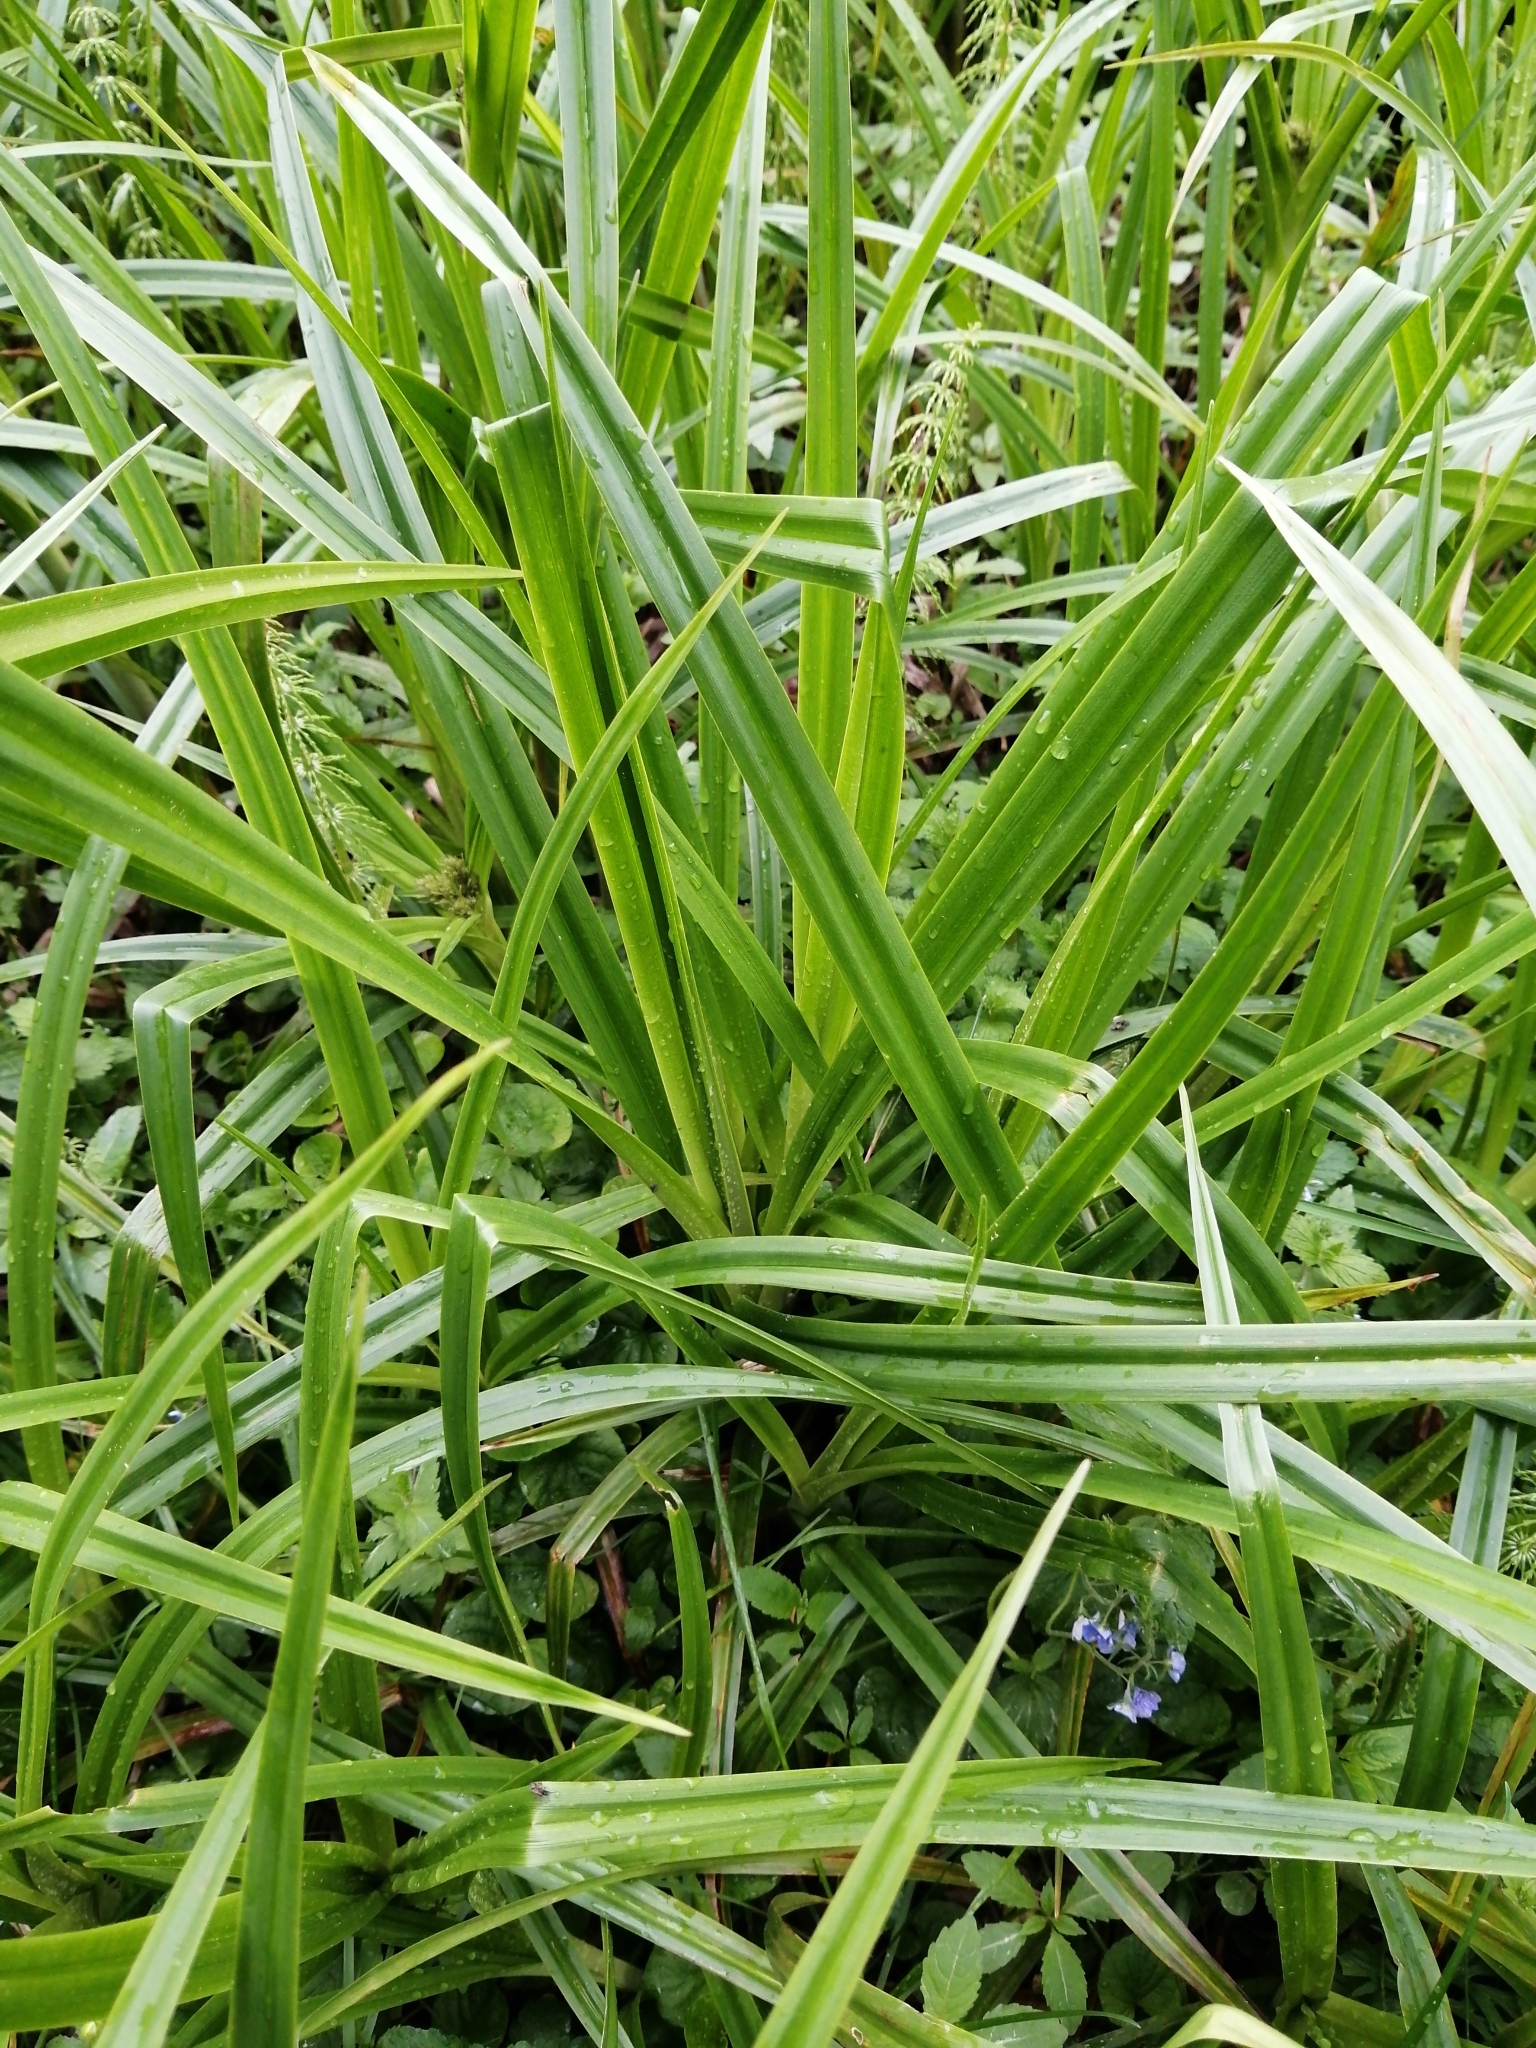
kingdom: Plantae
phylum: Tracheophyta
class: Liliopsida
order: Poales
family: Cyperaceae
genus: Scirpus
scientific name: Scirpus sylvaticus
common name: Wood club-rush
